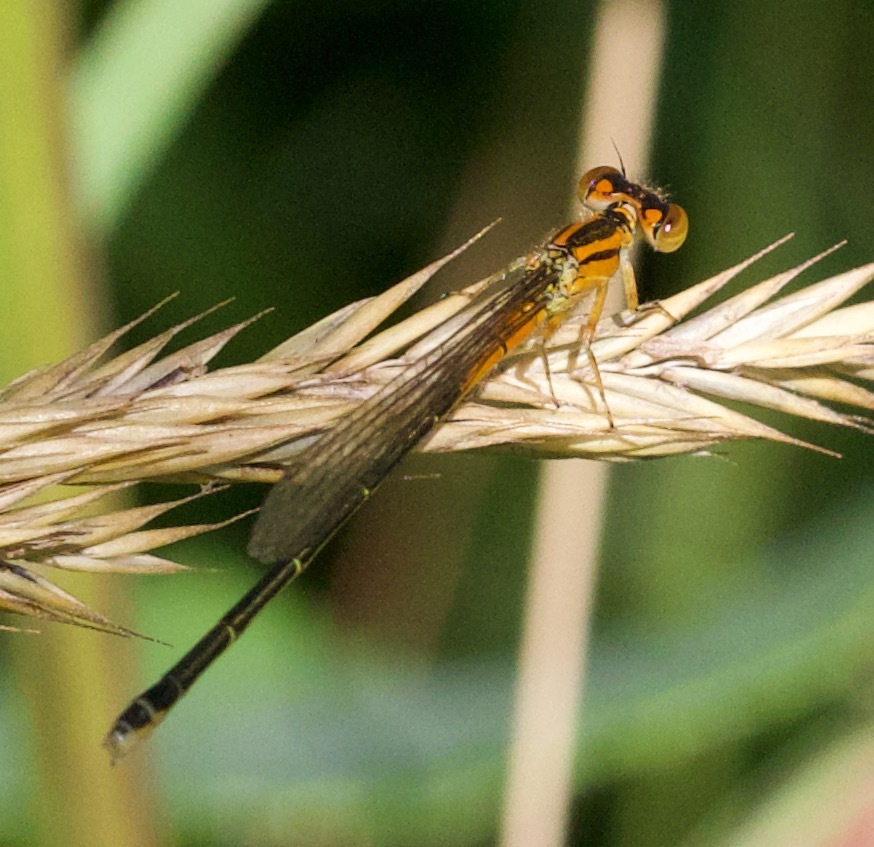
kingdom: Animalia
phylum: Arthropoda
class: Insecta
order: Odonata
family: Coenagrionidae
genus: Ischnura
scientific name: Ischnura verticalis
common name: Eastern forktail
